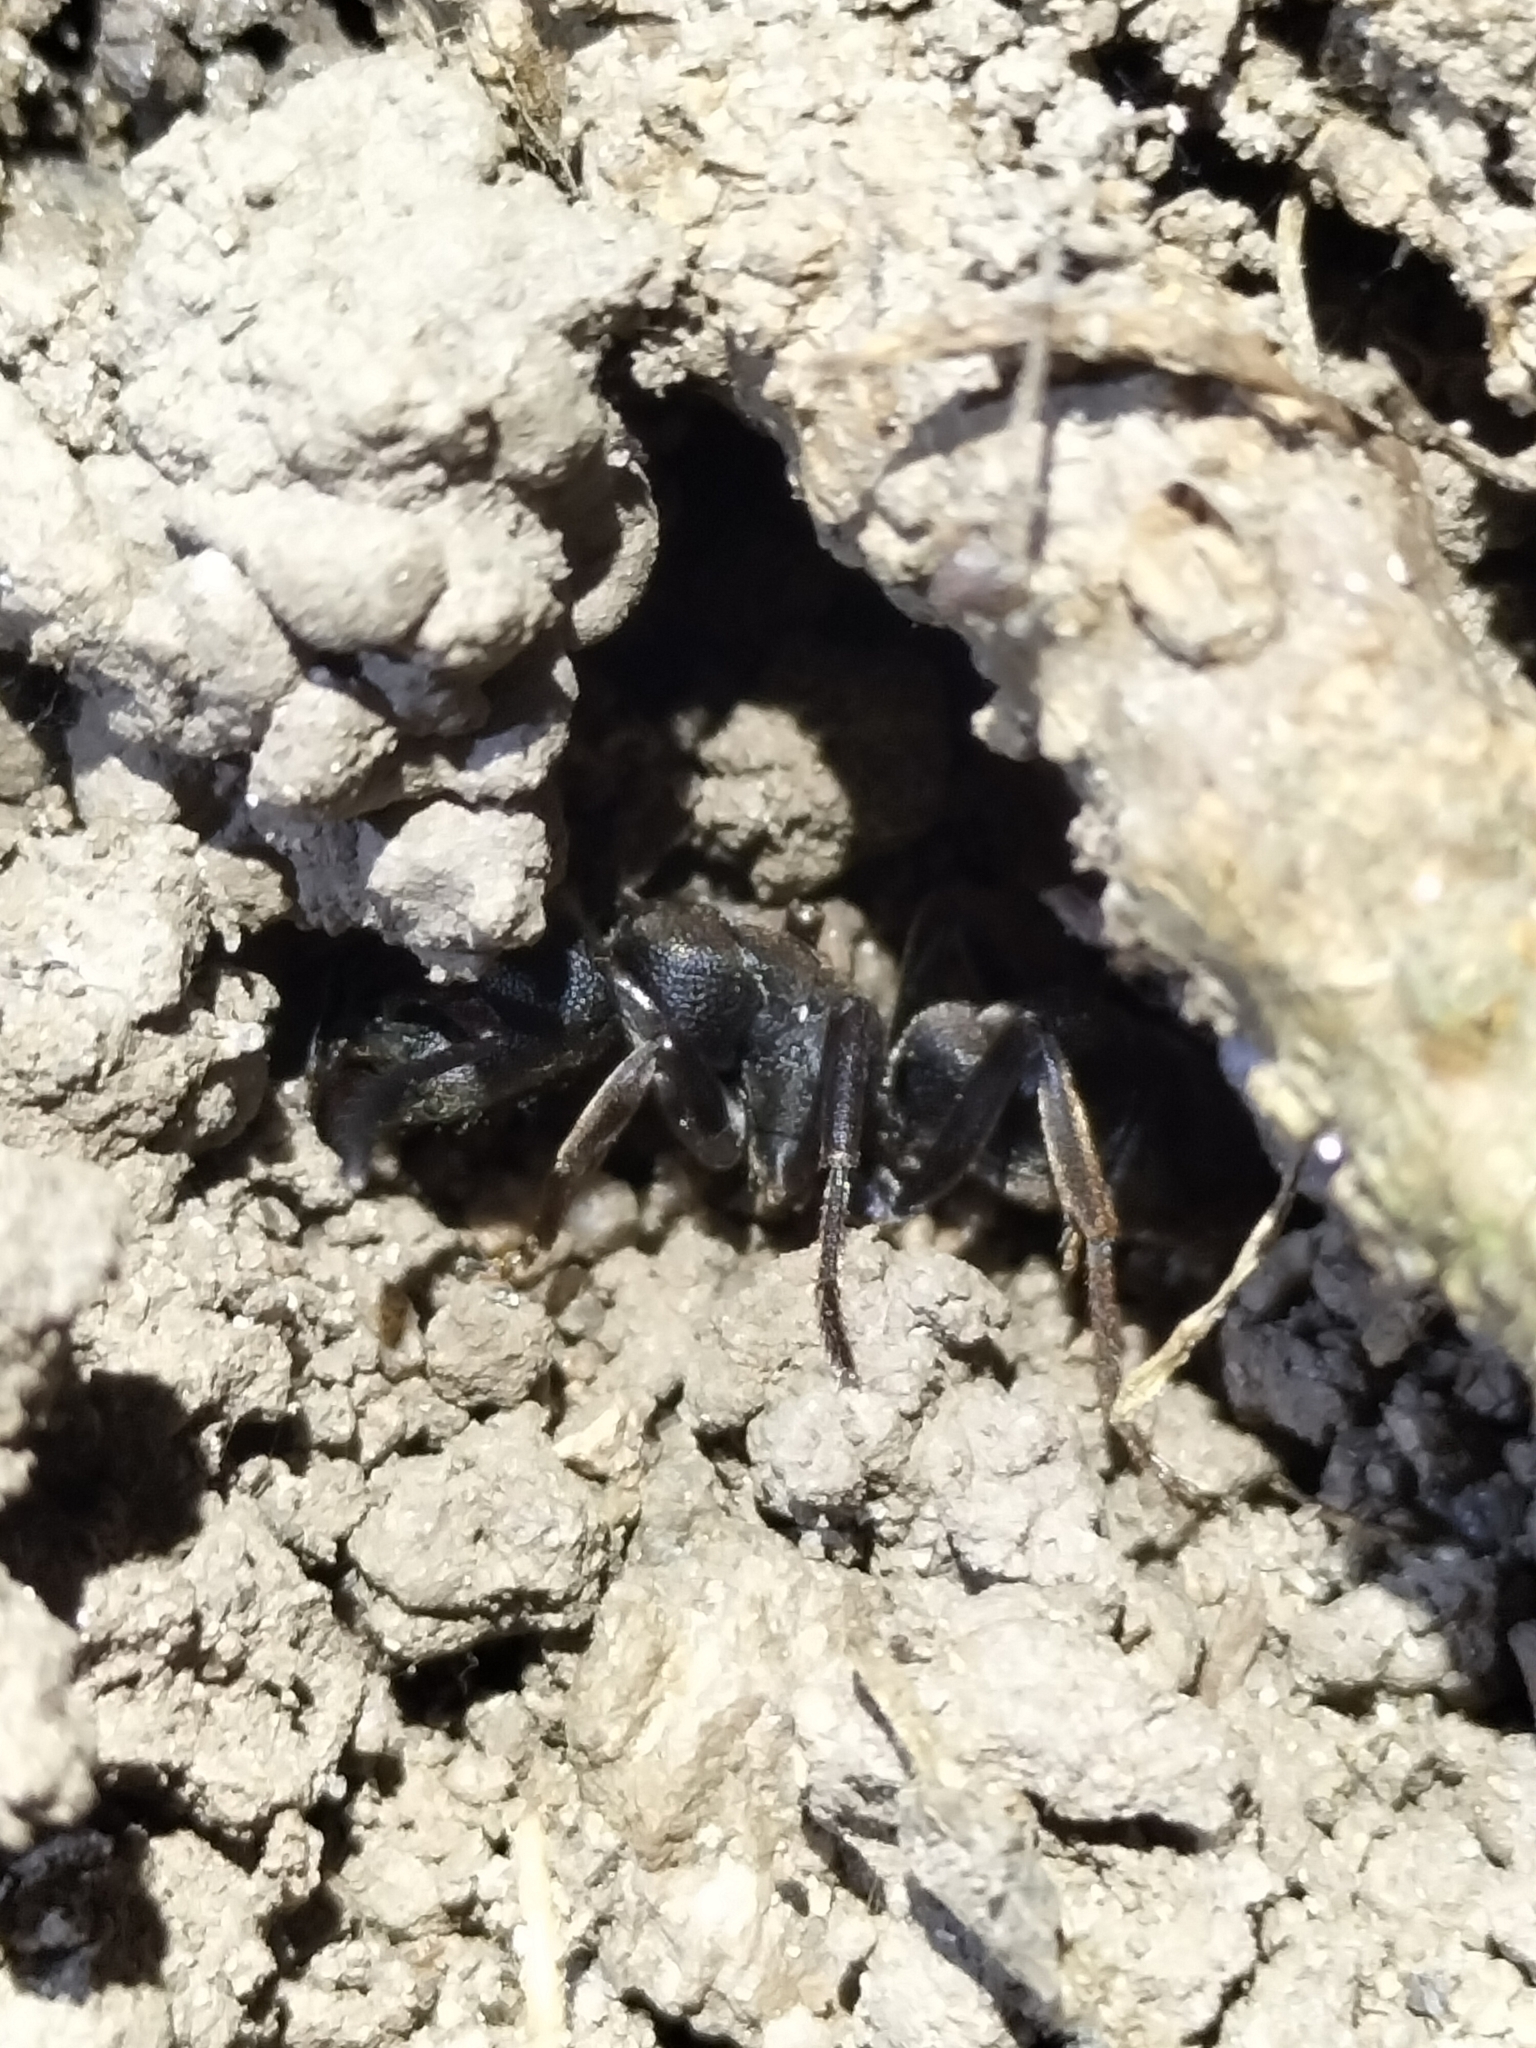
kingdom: Animalia
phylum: Arthropoda
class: Insecta
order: Hymenoptera
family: Formicidae
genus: Pseudoneoponera
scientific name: Pseudoneoponera
